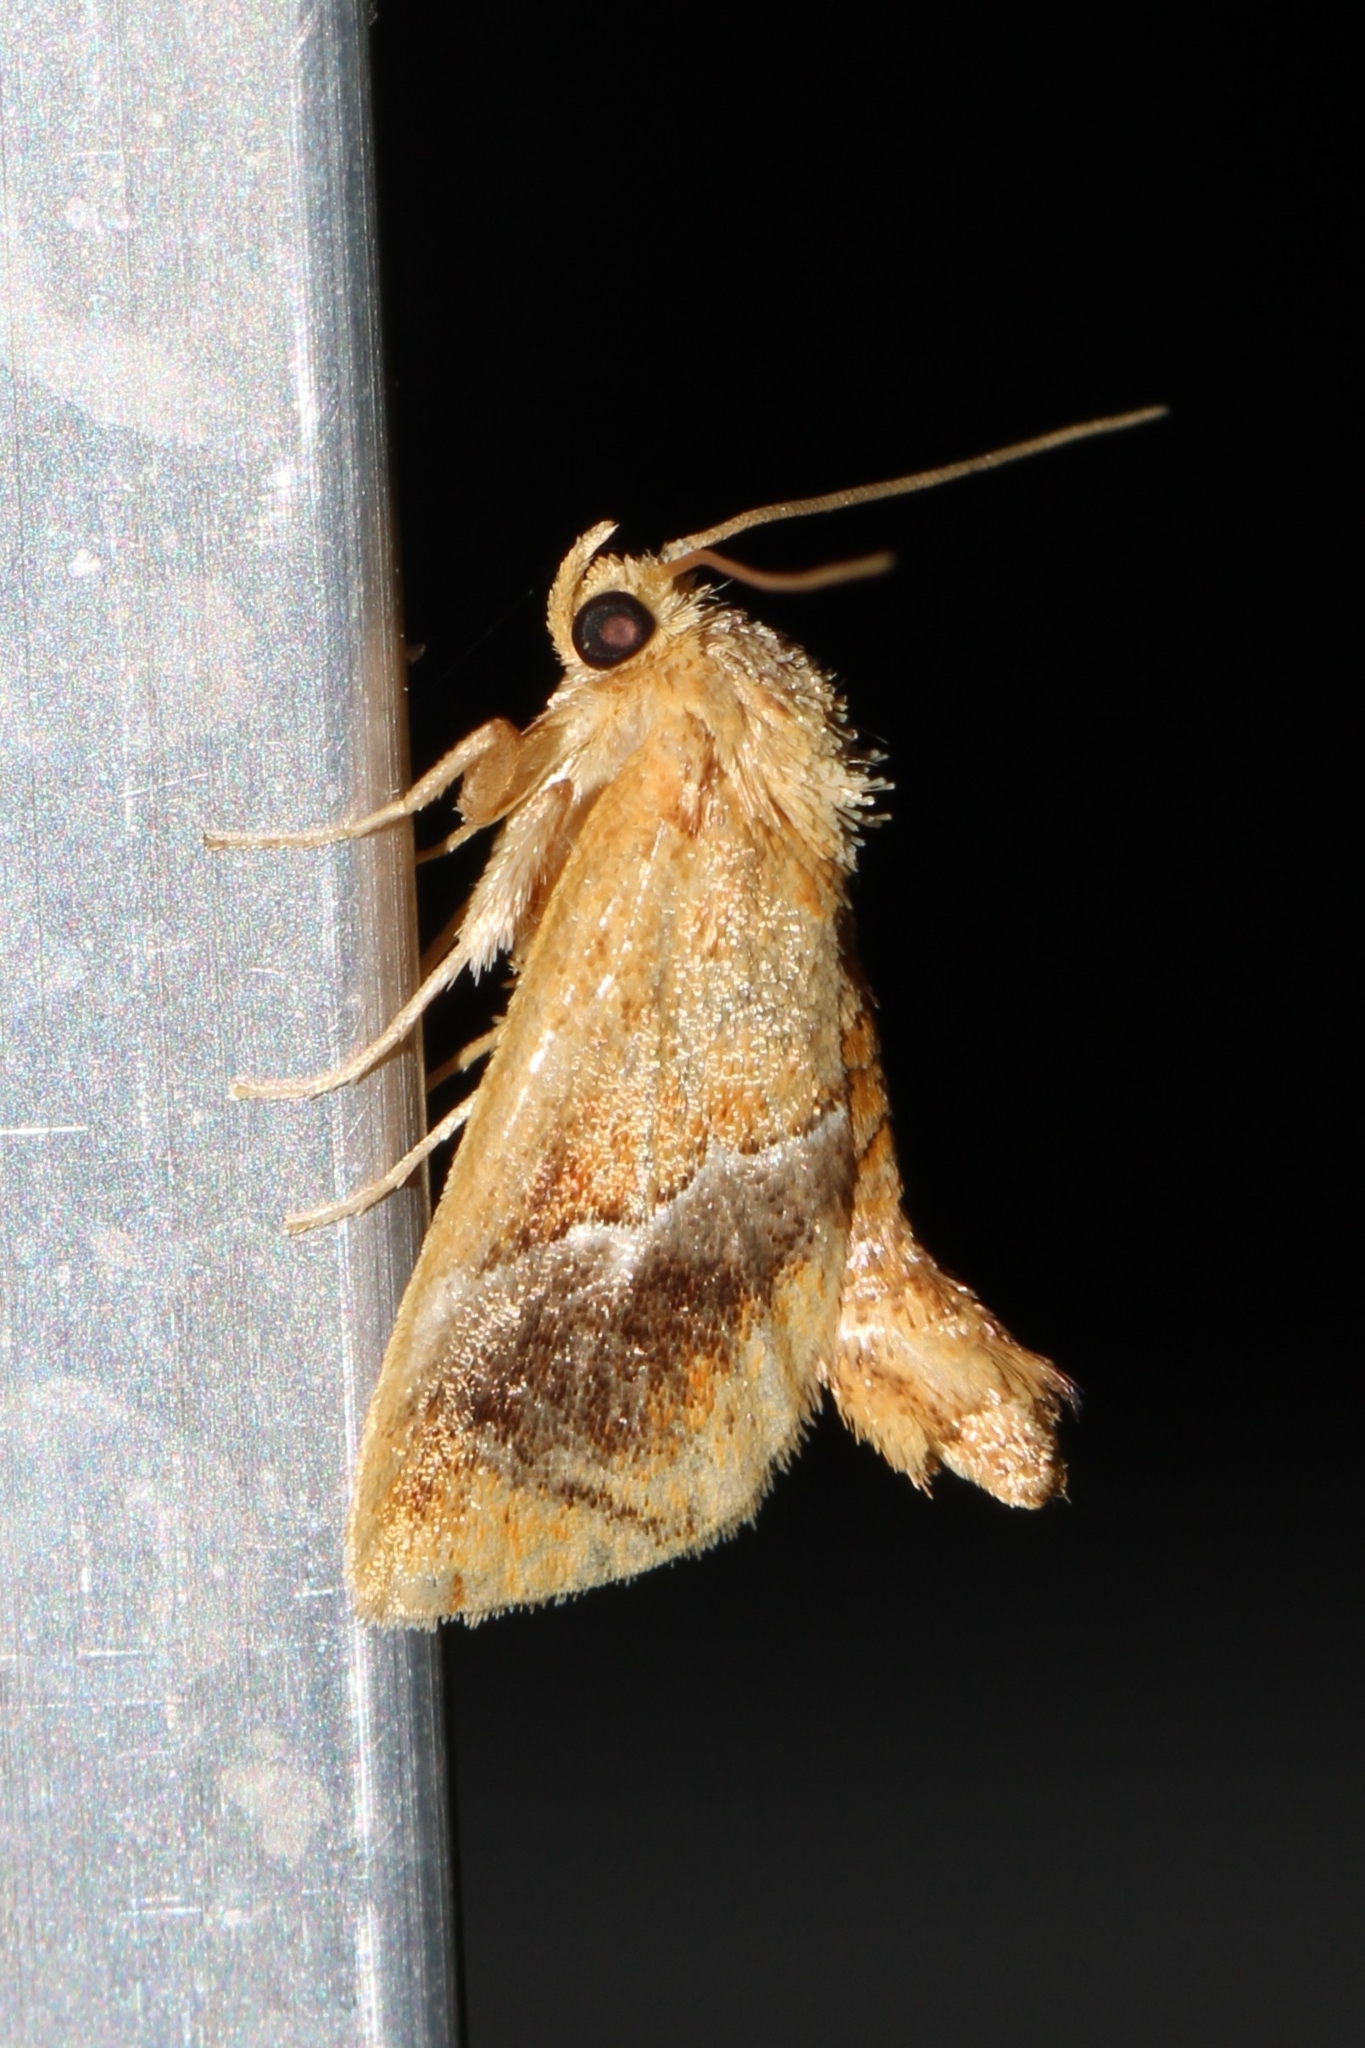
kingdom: Animalia
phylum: Arthropoda
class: Insecta
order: Lepidoptera
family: Limacodidae
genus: Lithacodes
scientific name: Lithacodes fasciola
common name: Yellow-shouldered slug moth
